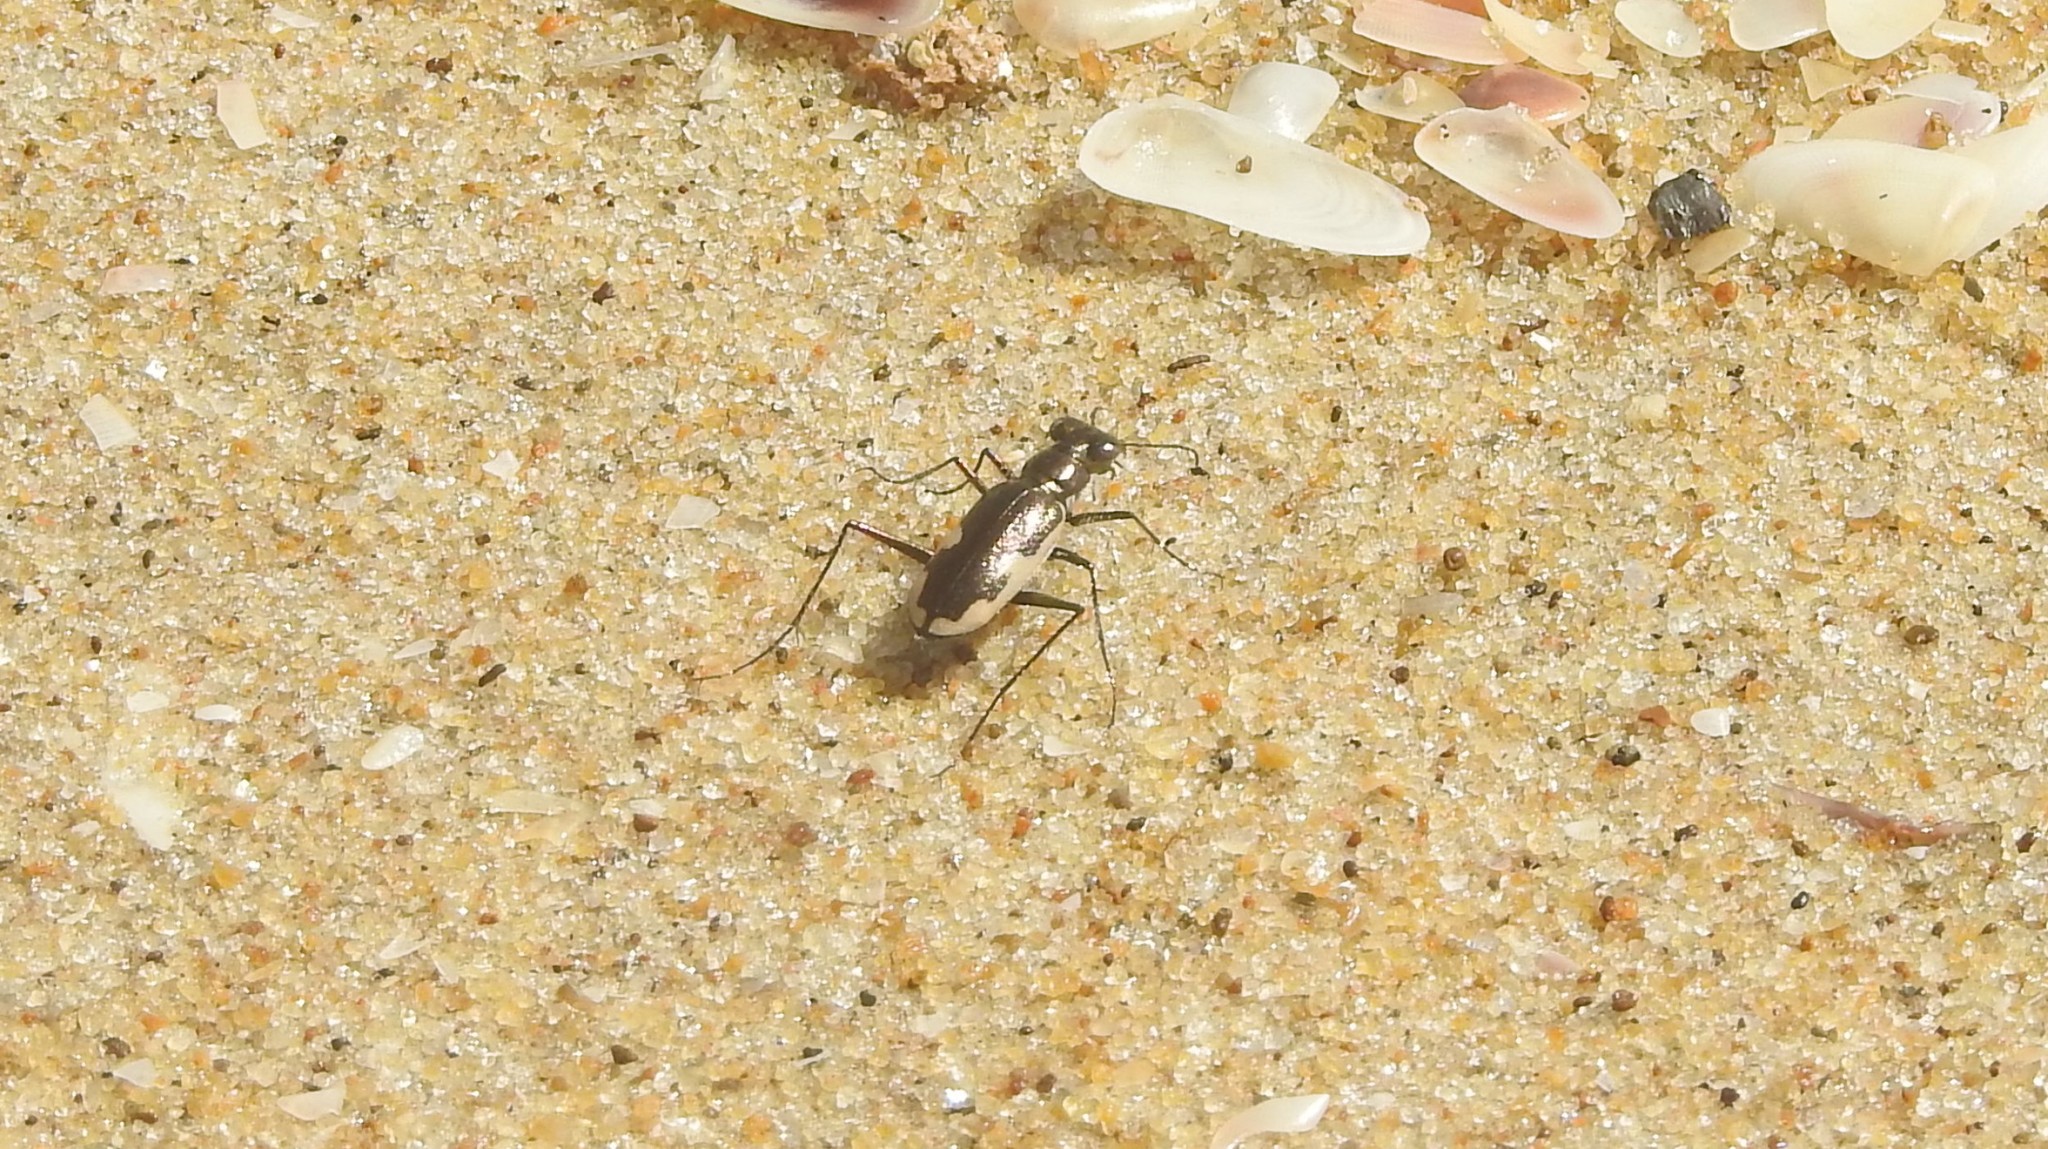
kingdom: Animalia
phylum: Arthropoda
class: Insecta
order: Coleoptera
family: Carabidae
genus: Hypaetha
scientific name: Hypaetha biramosa
